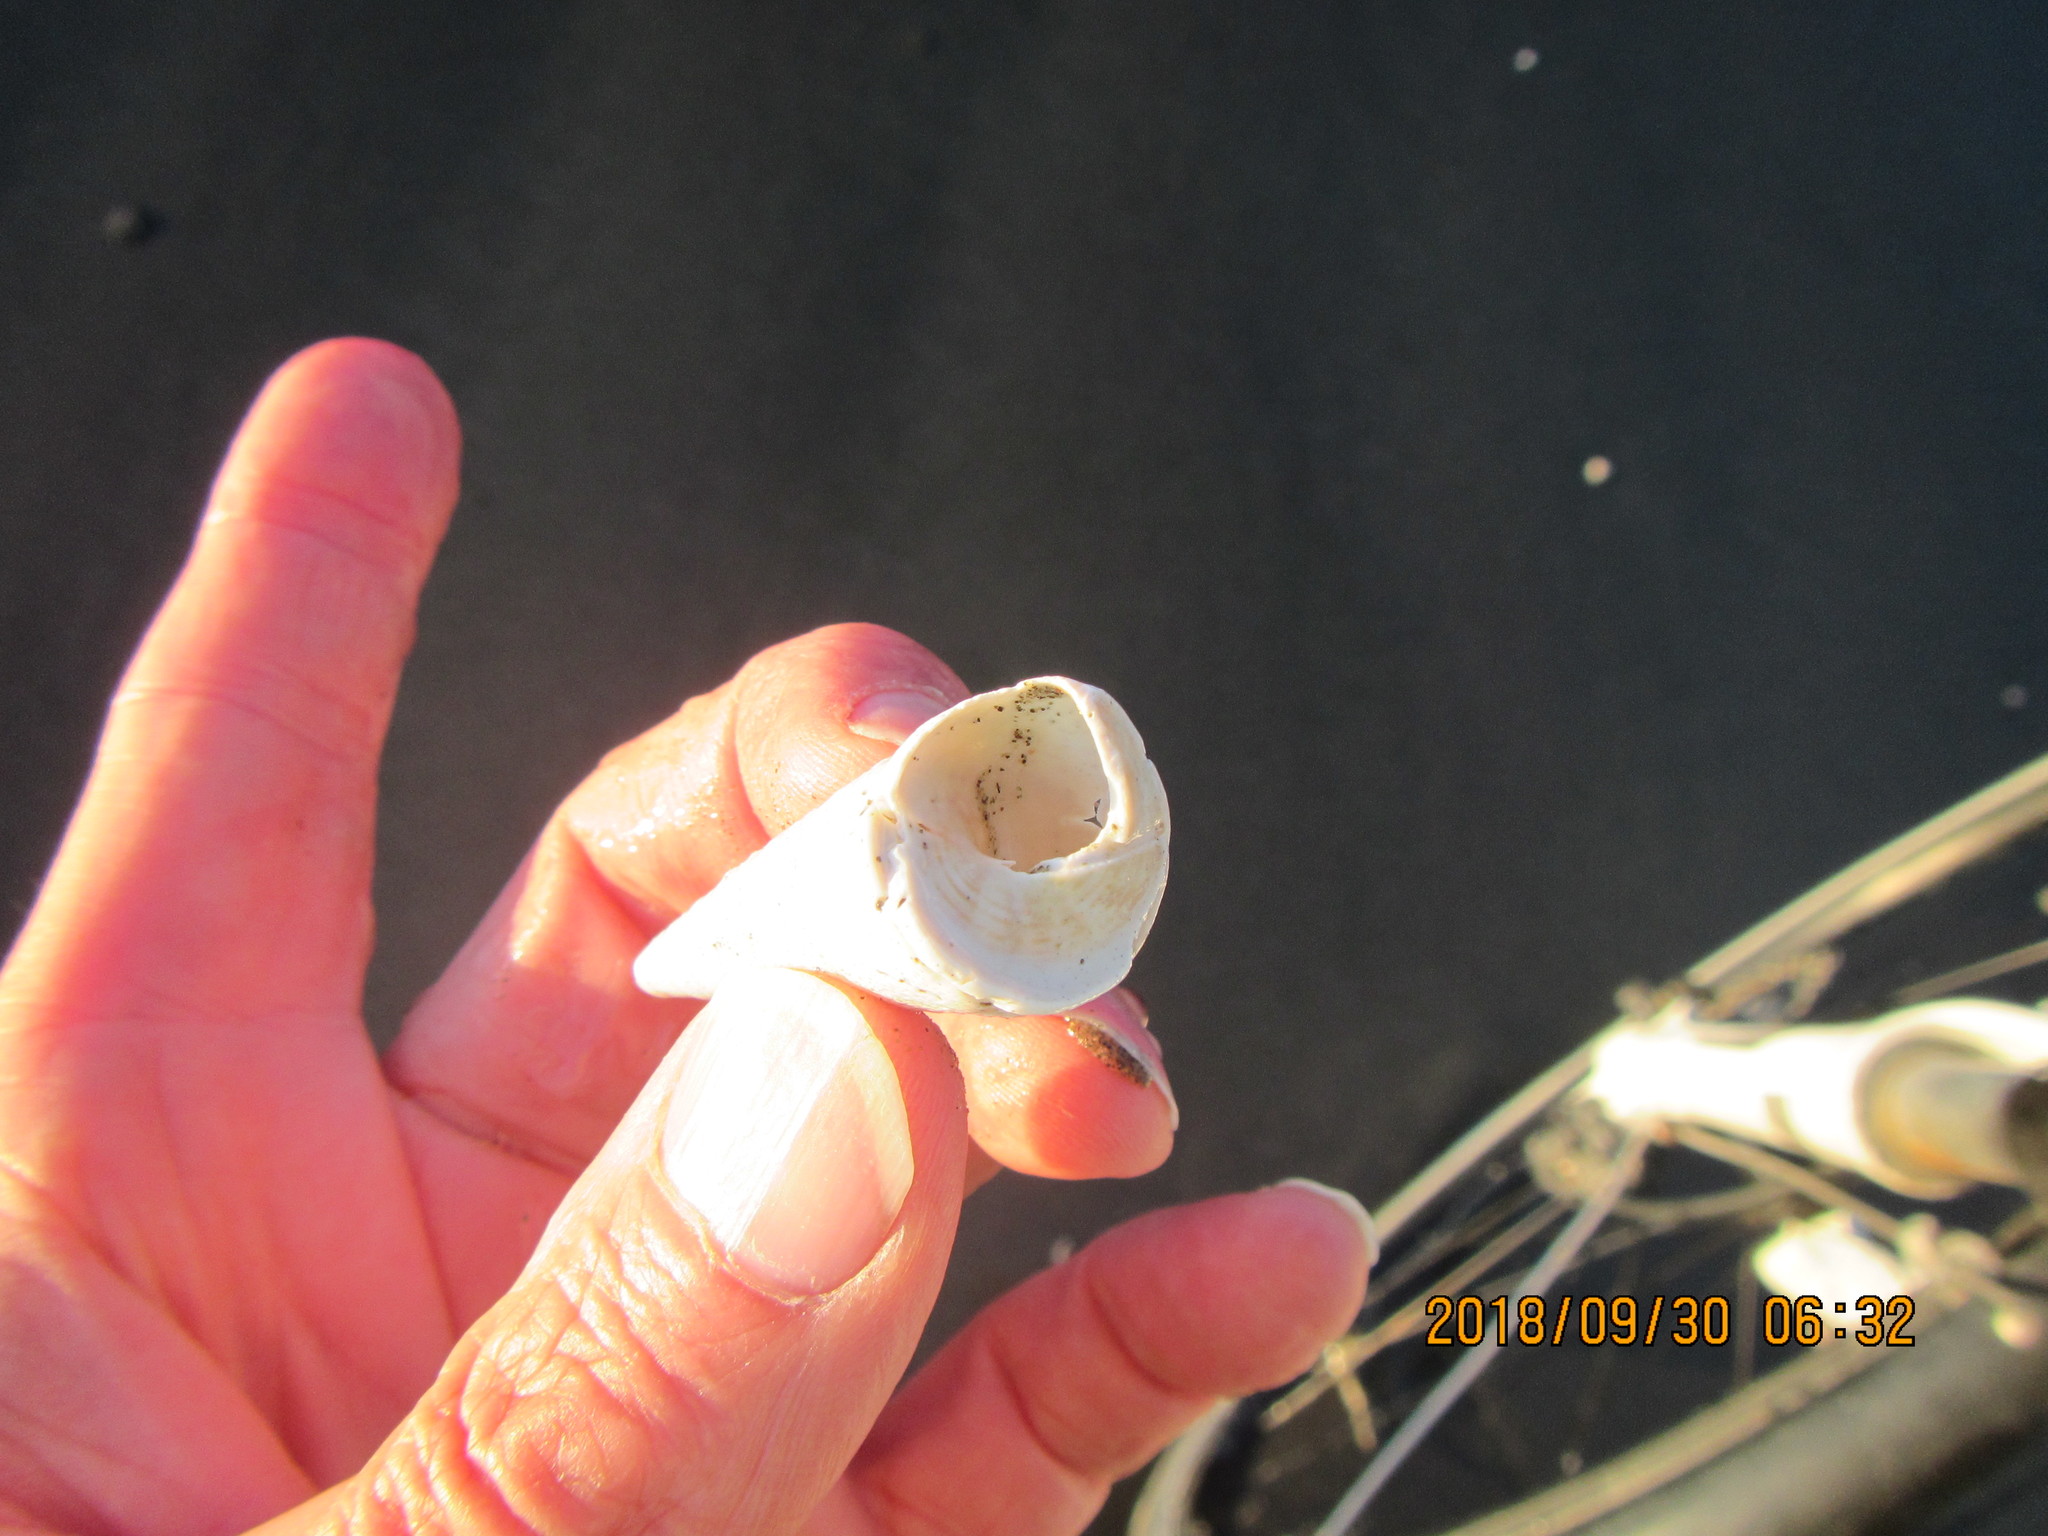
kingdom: Animalia
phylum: Mollusca
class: Gastropoda
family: Turritellidae
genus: Maoricolpus
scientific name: Maoricolpus roseus
